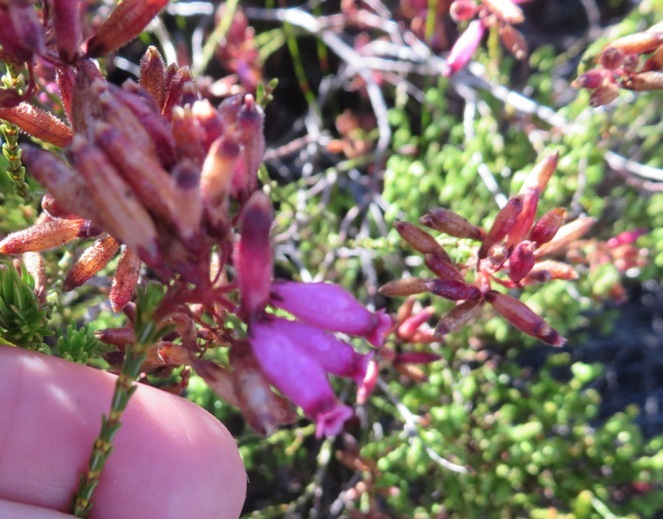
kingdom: Plantae
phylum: Tracheophyta
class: Magnoliopsida
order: Ericales
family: Ericaceae
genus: Erica
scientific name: Erica cristata
